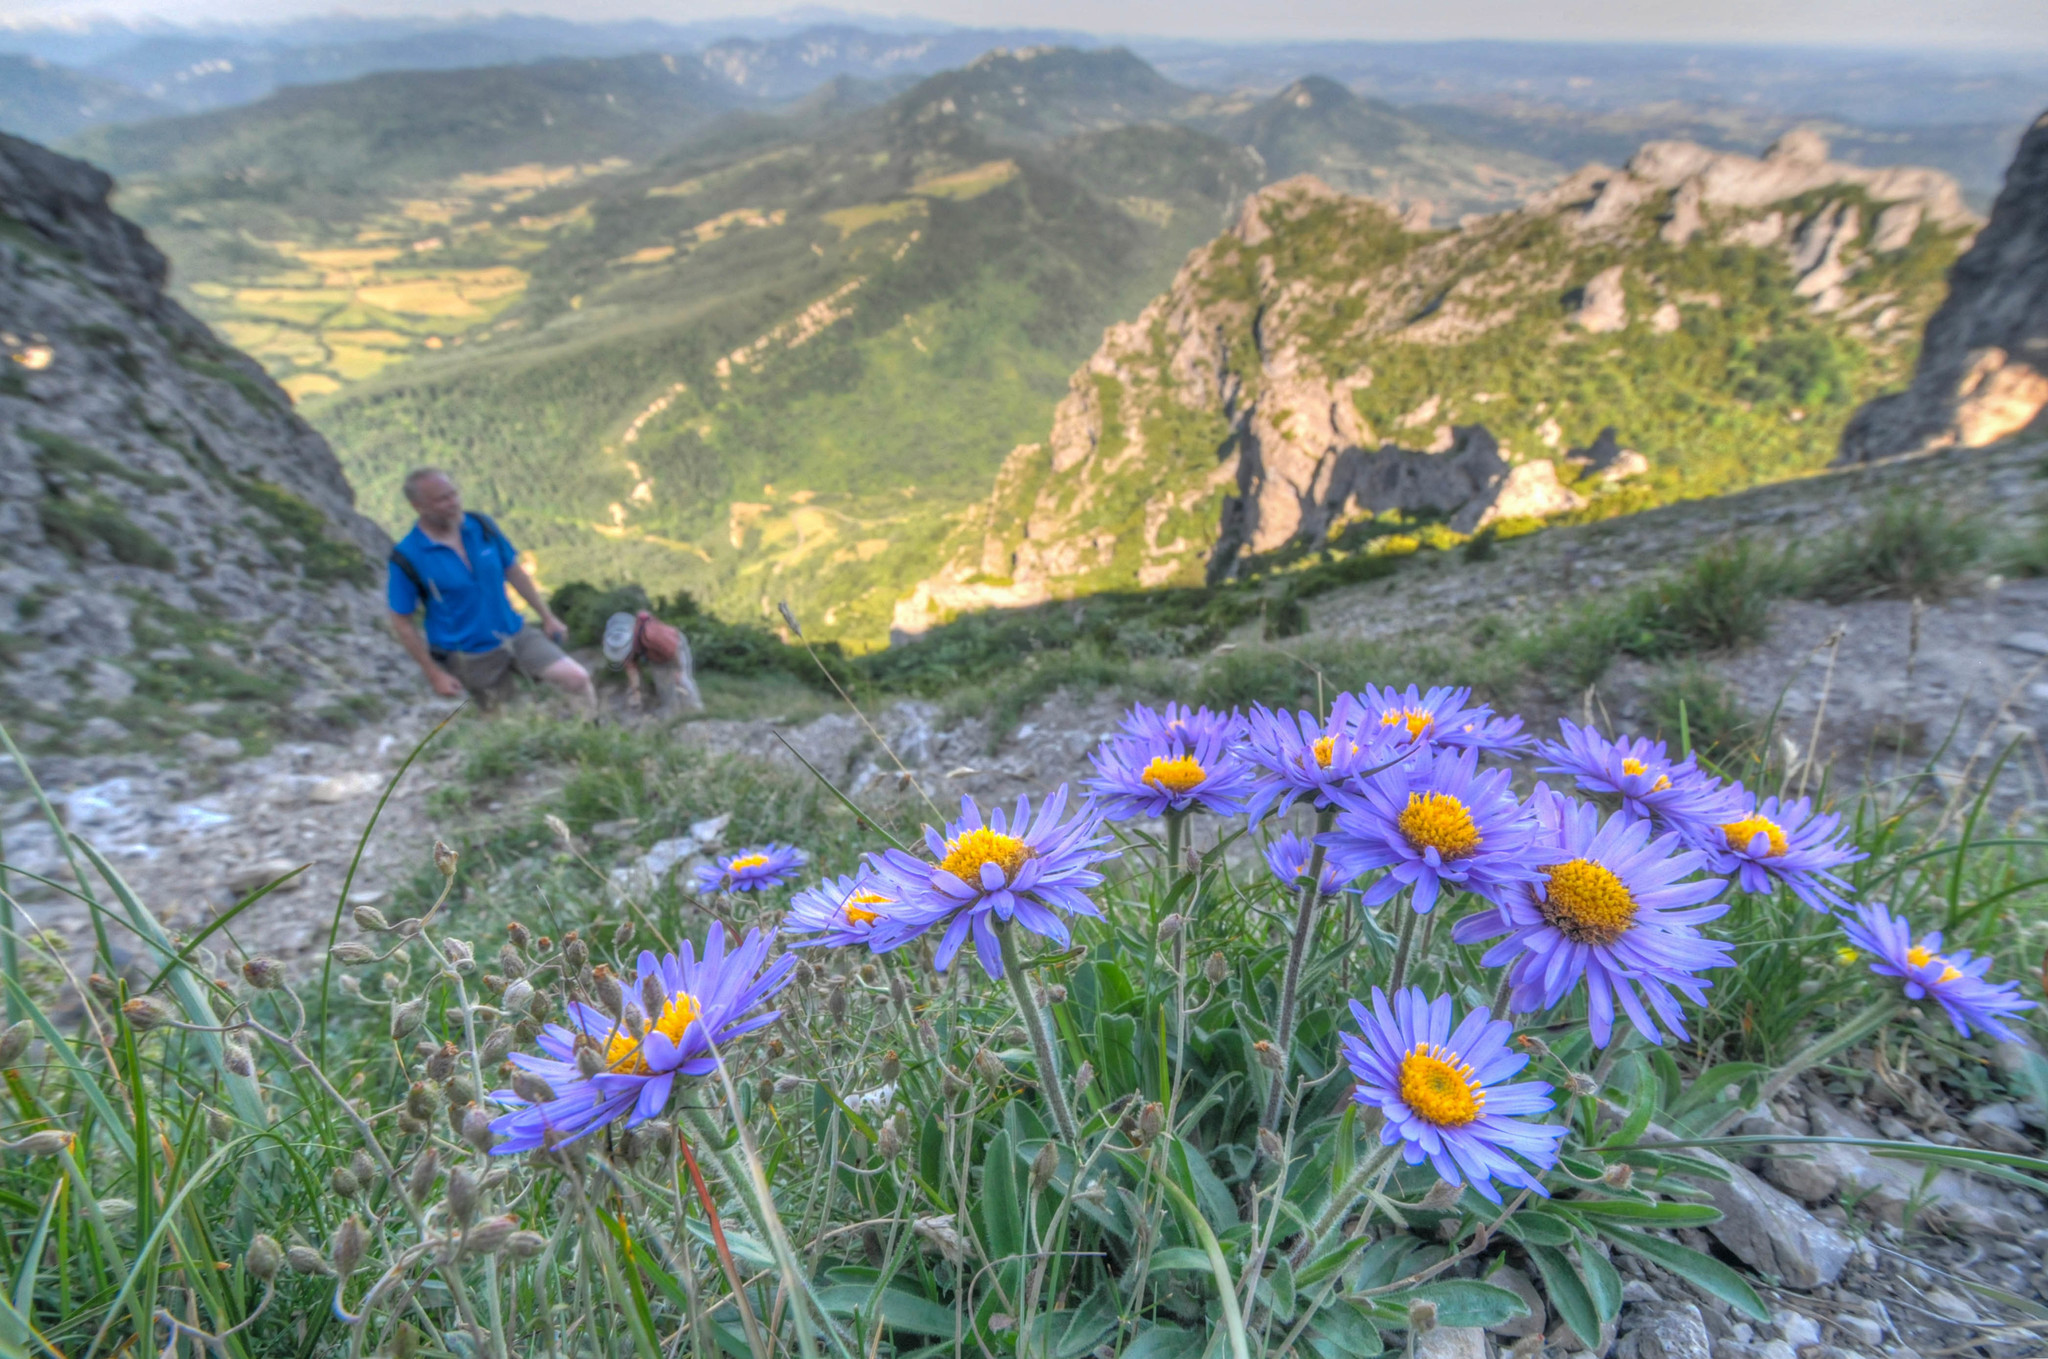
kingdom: Plantae
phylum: Tracheophyta
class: Magnoliopsida
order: Asterales
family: Asteraceae
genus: Aster
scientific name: Aster alpinus
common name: Alpine aster
